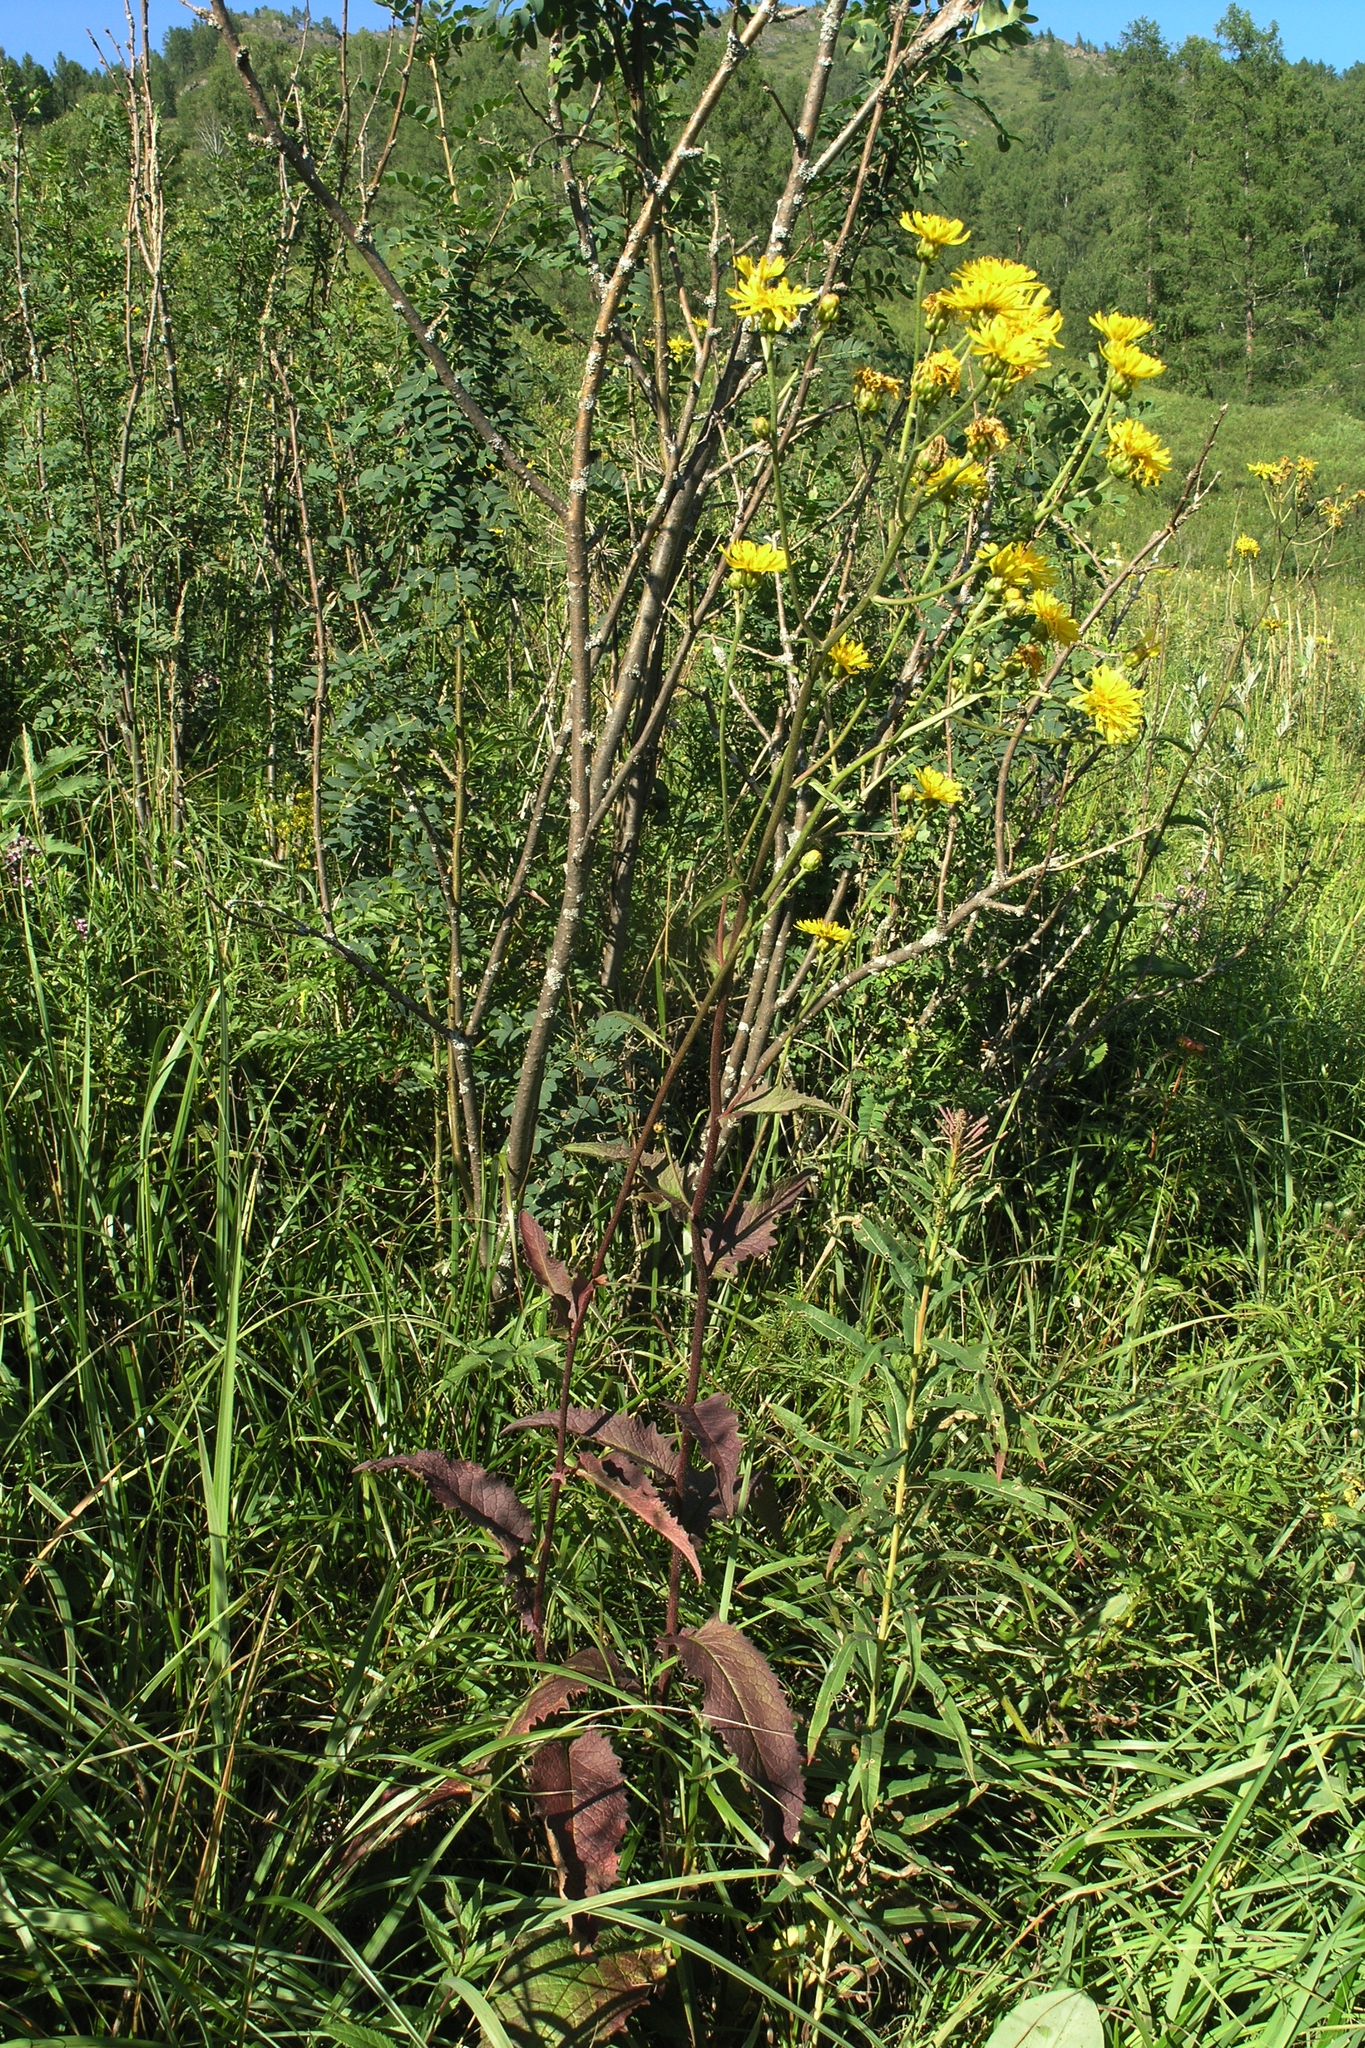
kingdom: Plantae
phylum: Tracheophyta
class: Magnoliopsida
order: Asterales
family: Asteraceae
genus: Crepis
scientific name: Crepis sibirica
